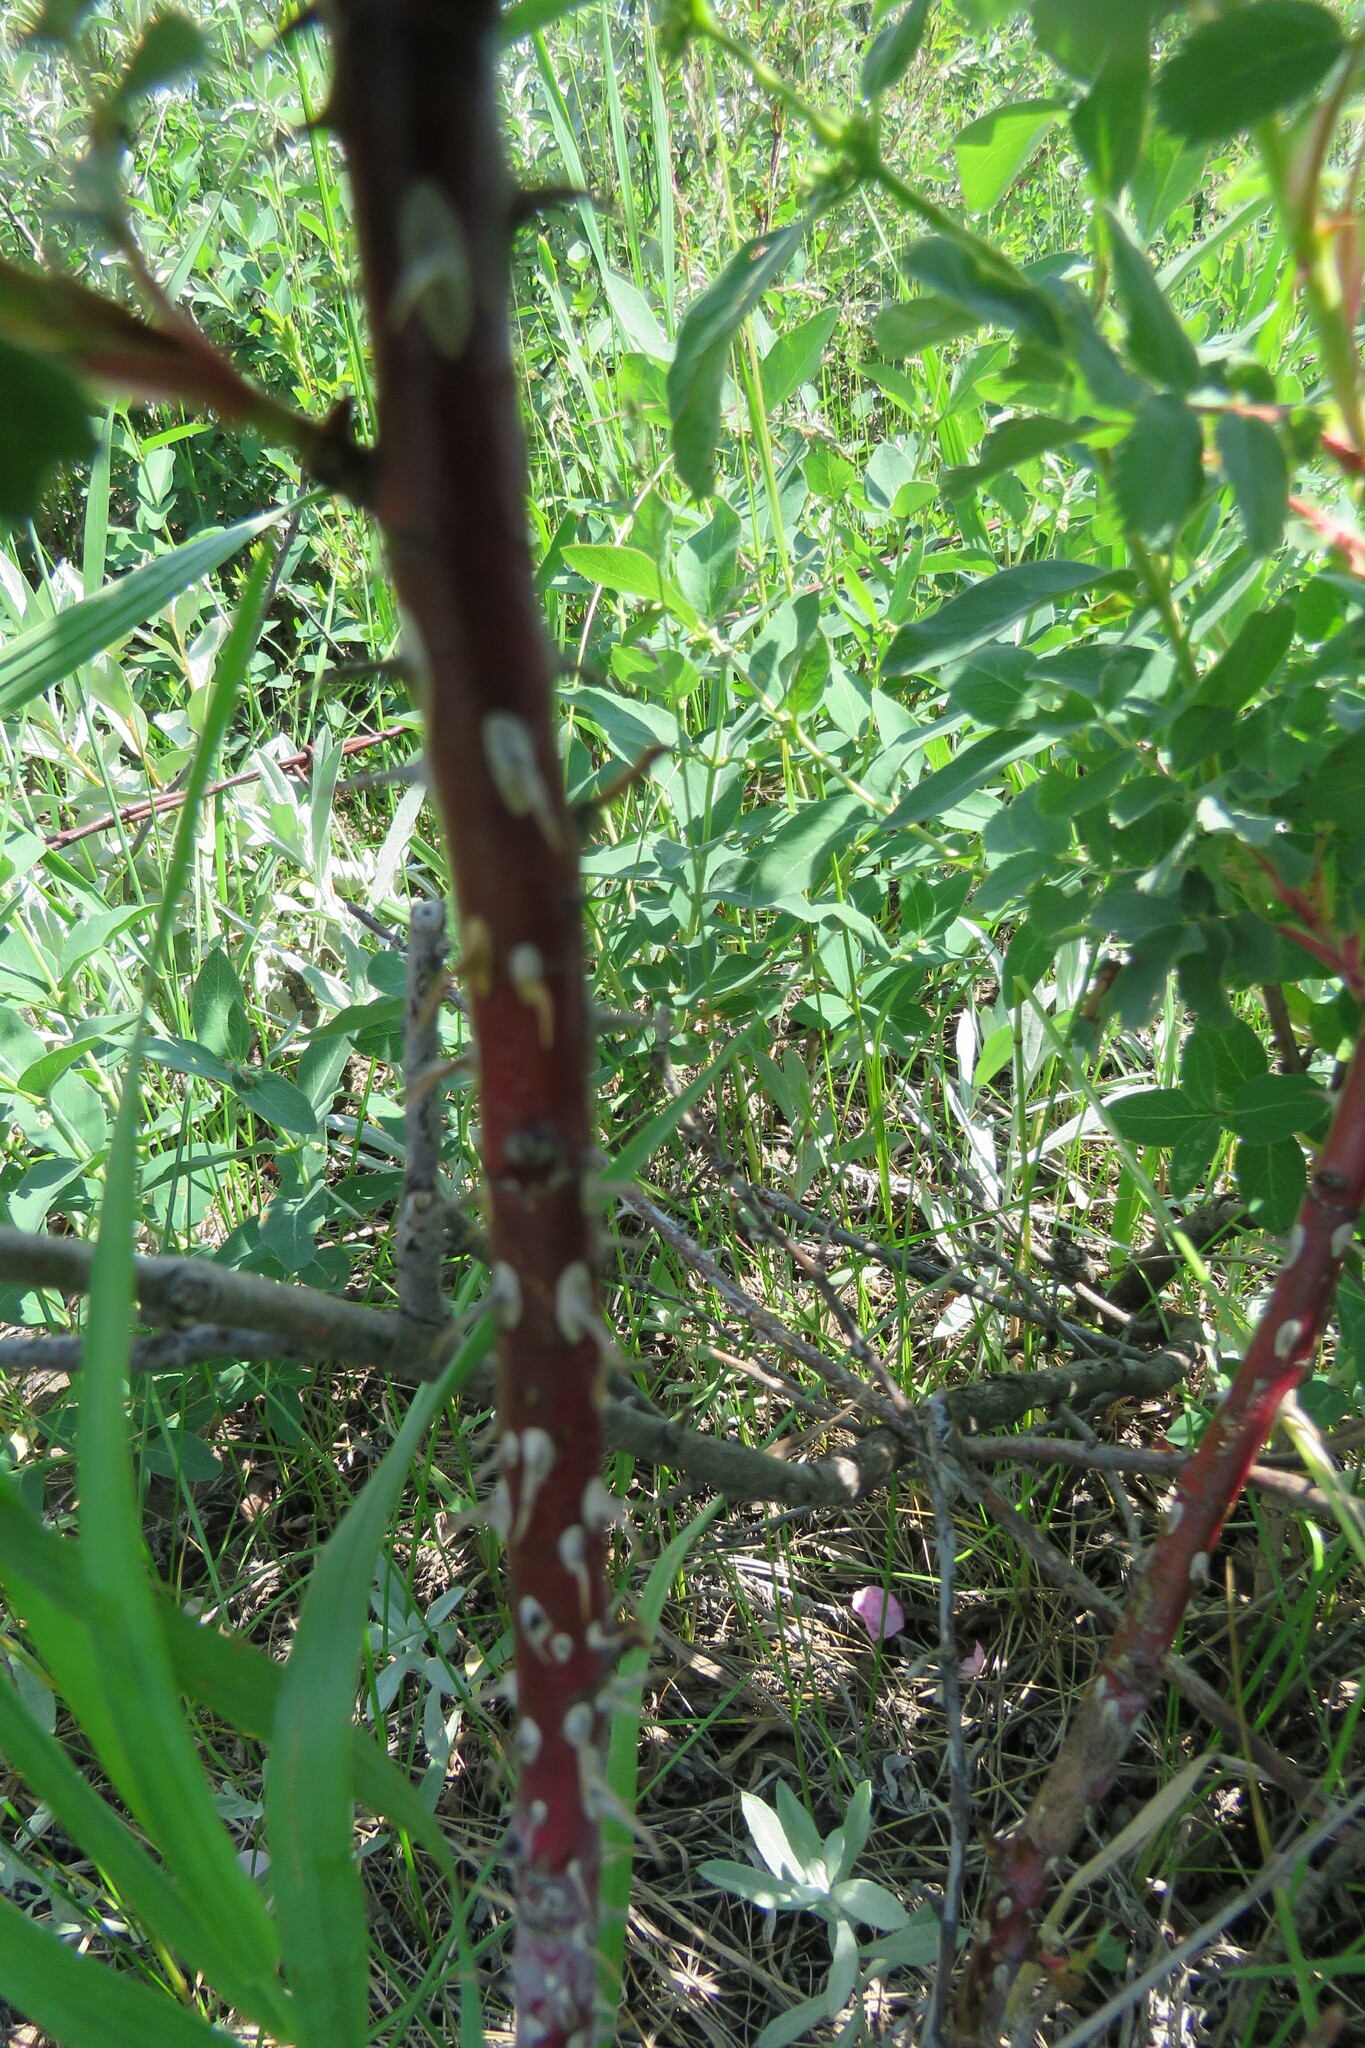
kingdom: Plantae
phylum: Tracheophyta
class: Magnoliopsida
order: Rosales
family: Rosaceae
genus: Rosa
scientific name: Rosa woodsii
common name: Woods's rose
